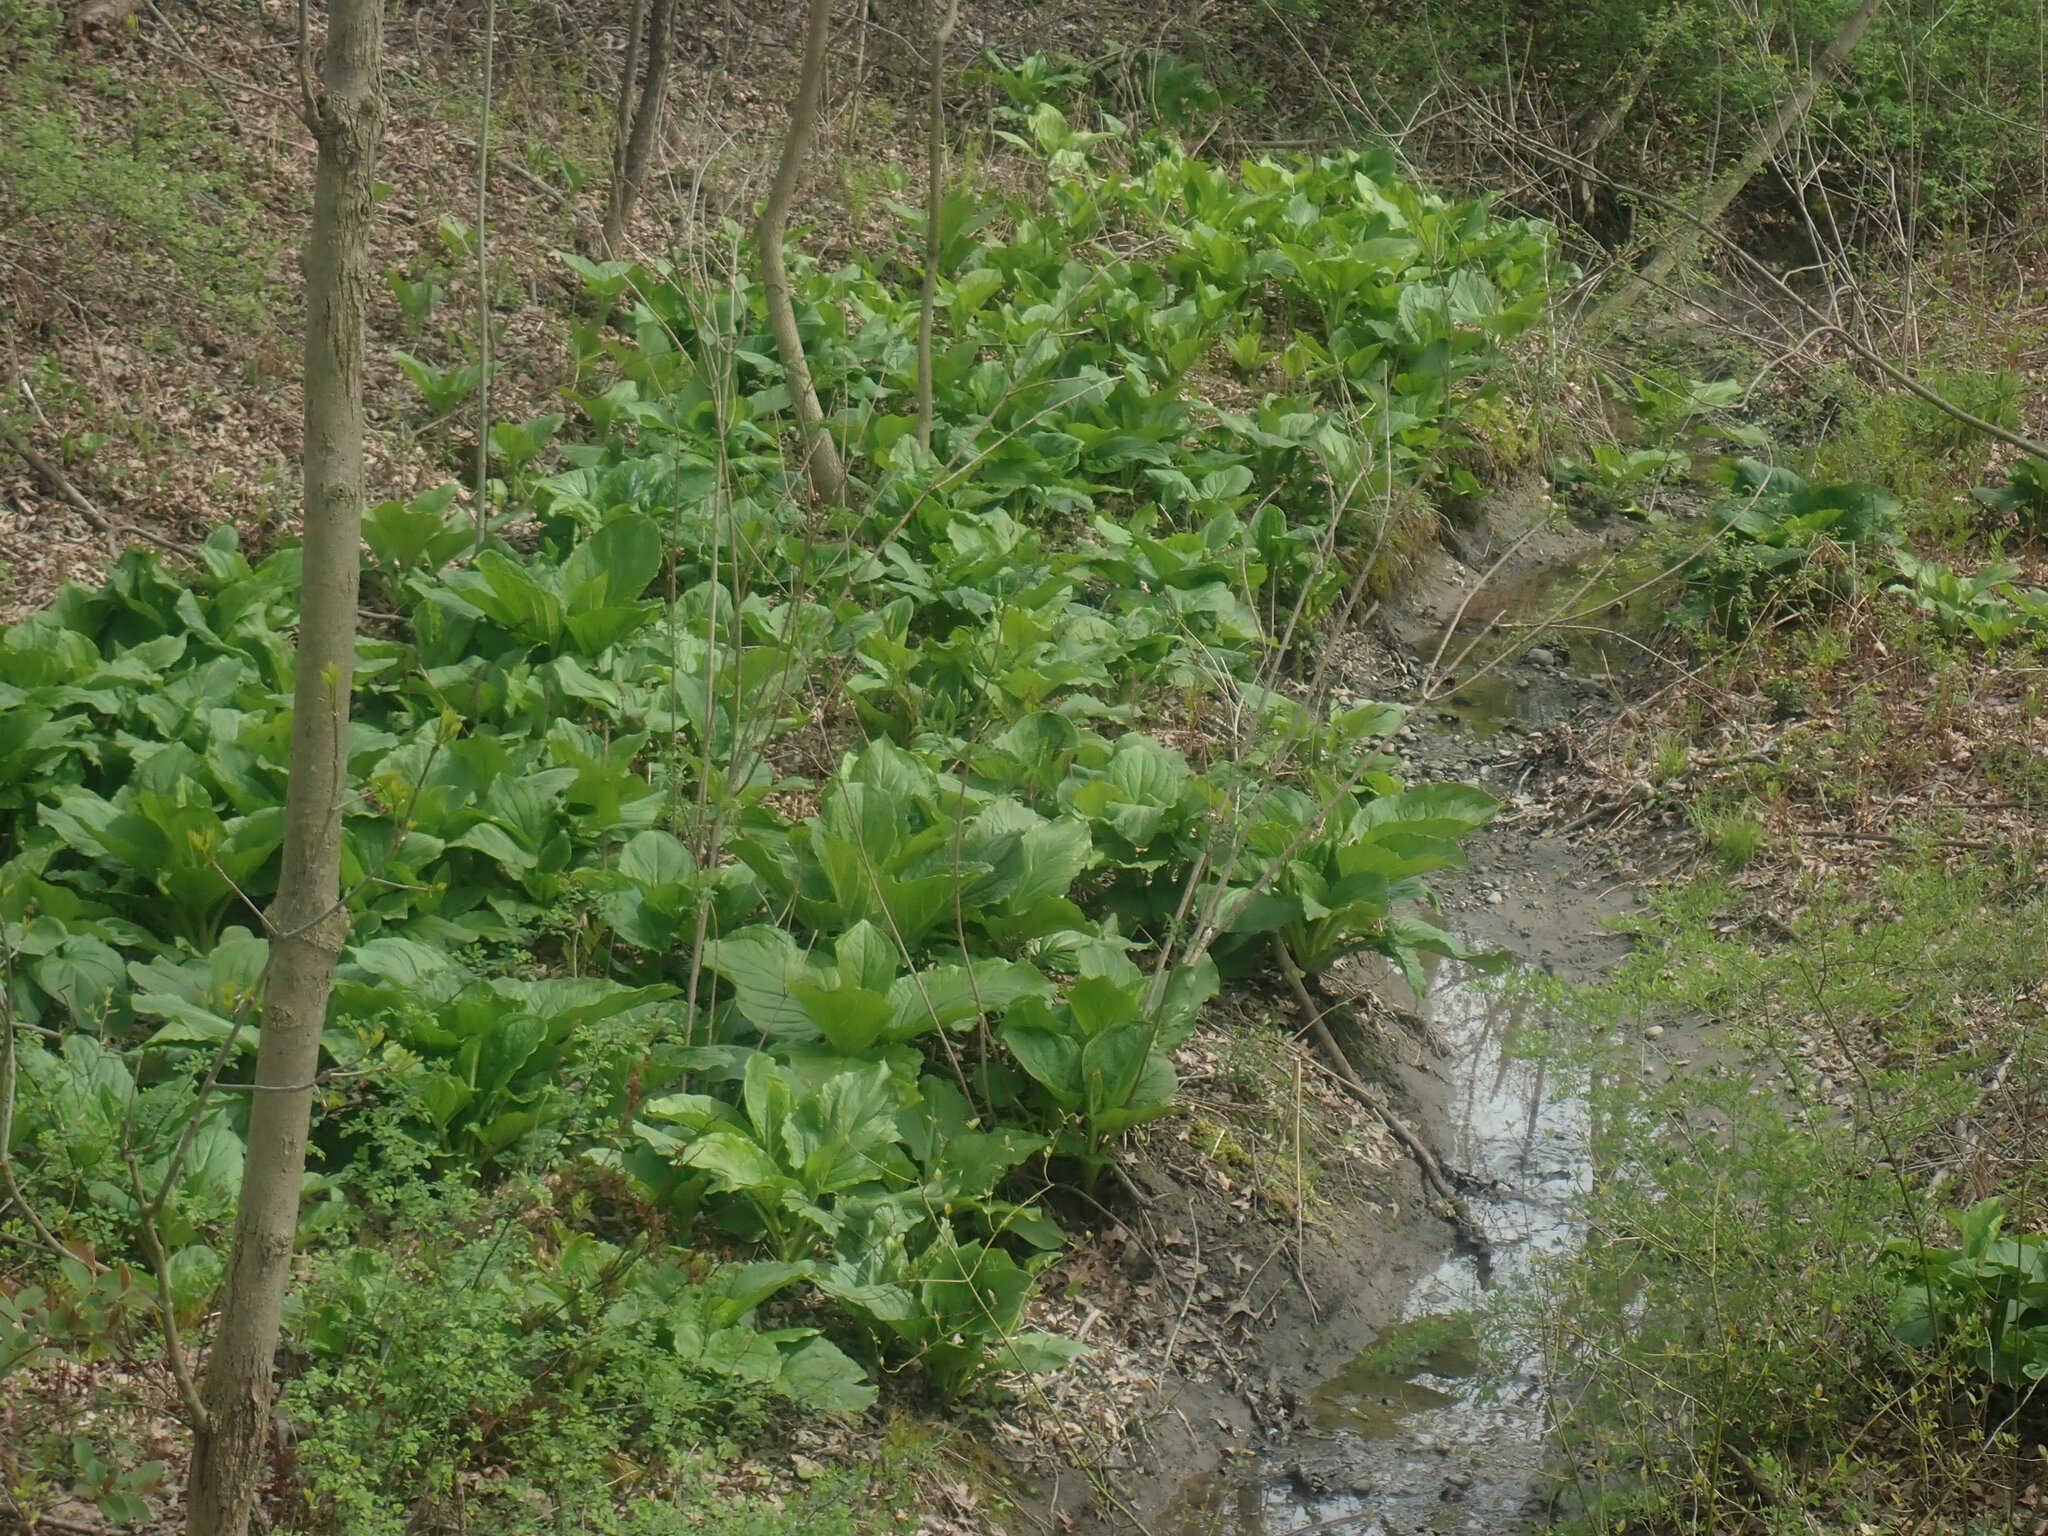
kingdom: Plantae
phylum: Tracheophyta
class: Liliopsida
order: Alismatales
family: Araceae
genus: Symplocarpus
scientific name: Symplocarpus foetidus
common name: Eastern skunk cabbage
